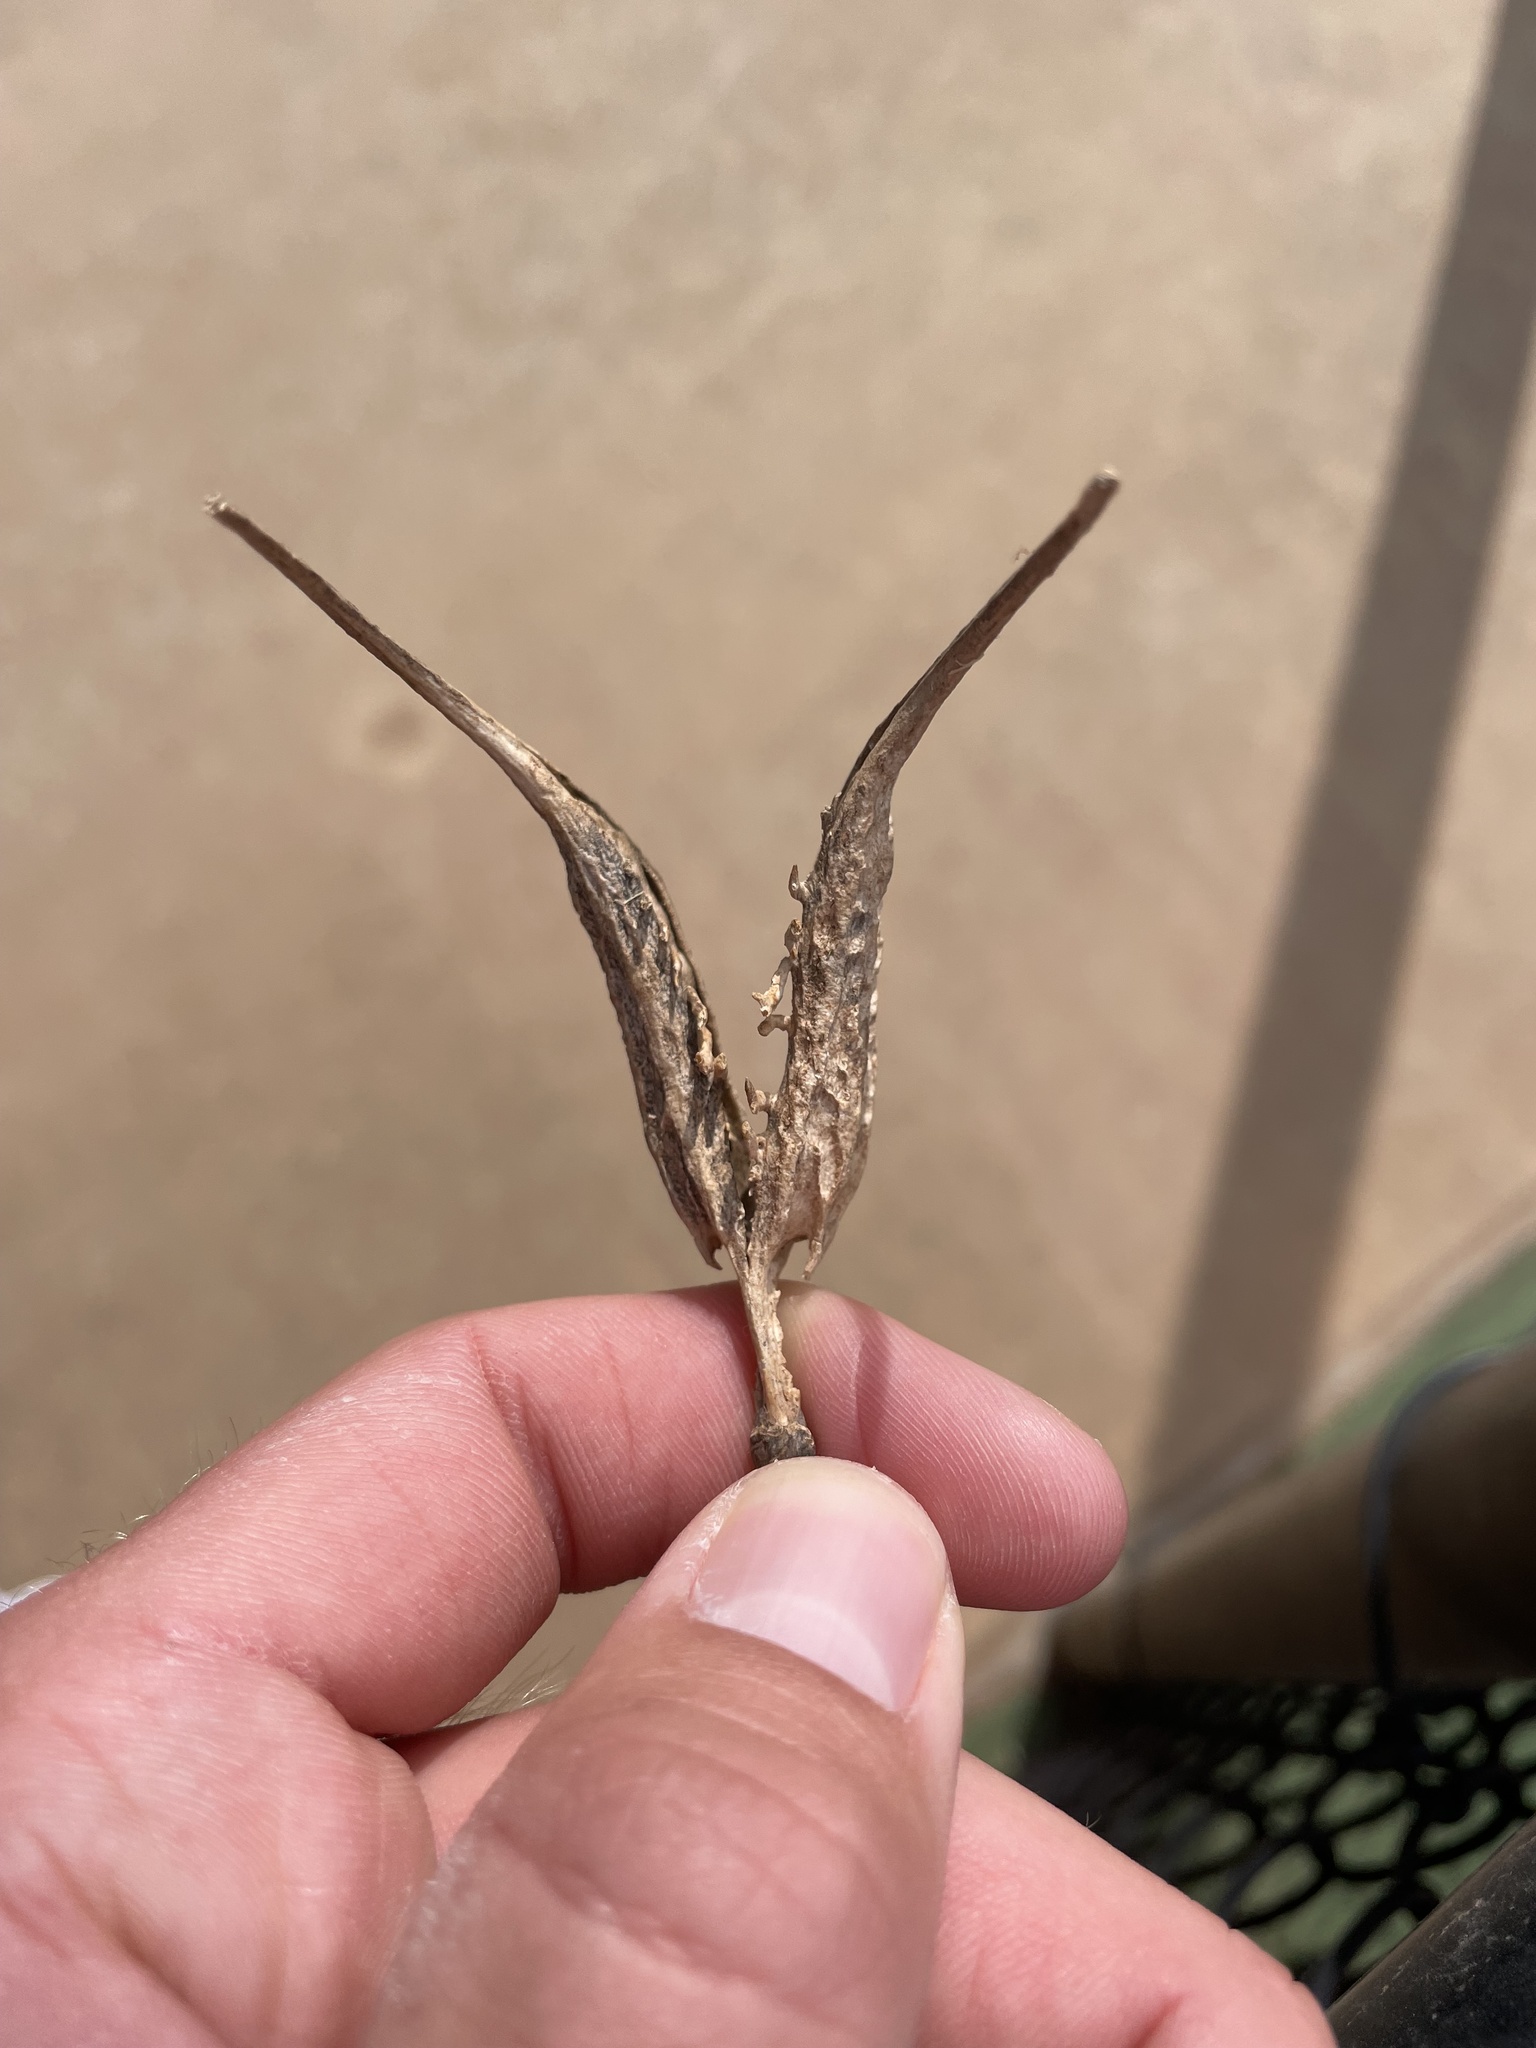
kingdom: Plantae
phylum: Tracheophyta
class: Magnoliopsida
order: Lamiales
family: Martyniaceae
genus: Proboscidea
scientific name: Proboscidea louisianica
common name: Elephant tusks
